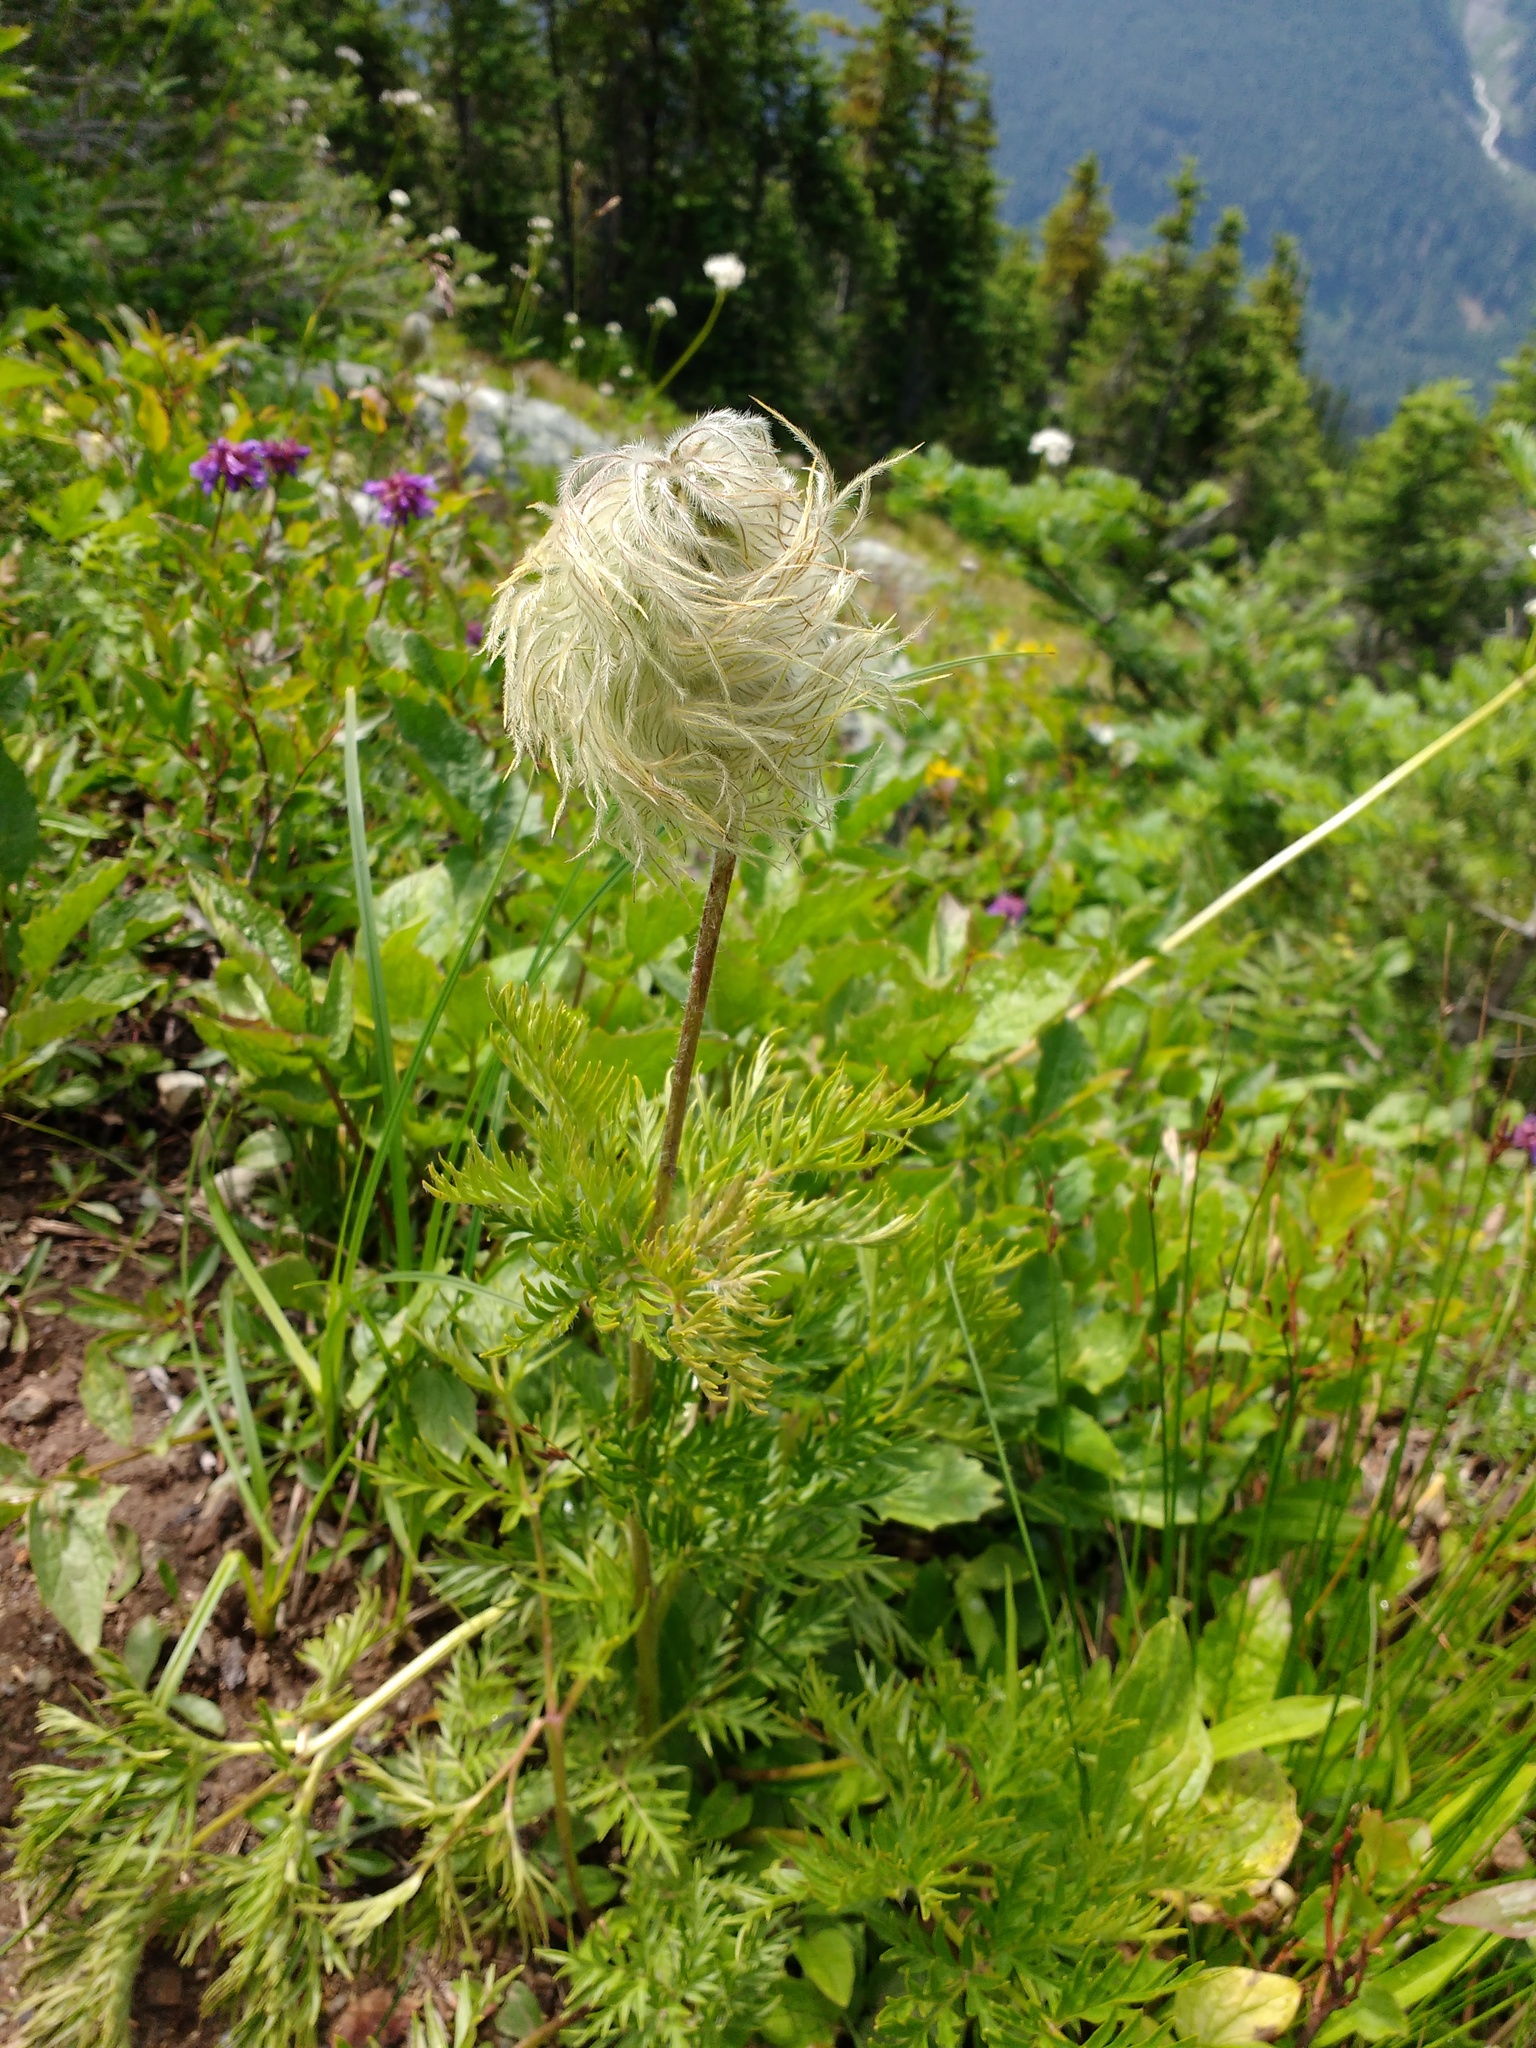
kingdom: Plantae
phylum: Tracheophyta
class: Magnoliopsida
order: Ranunculales
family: Ranunculaceae
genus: Pulsatilla
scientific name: Pulsatilla occidentalis
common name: Mountain pasqueflower
